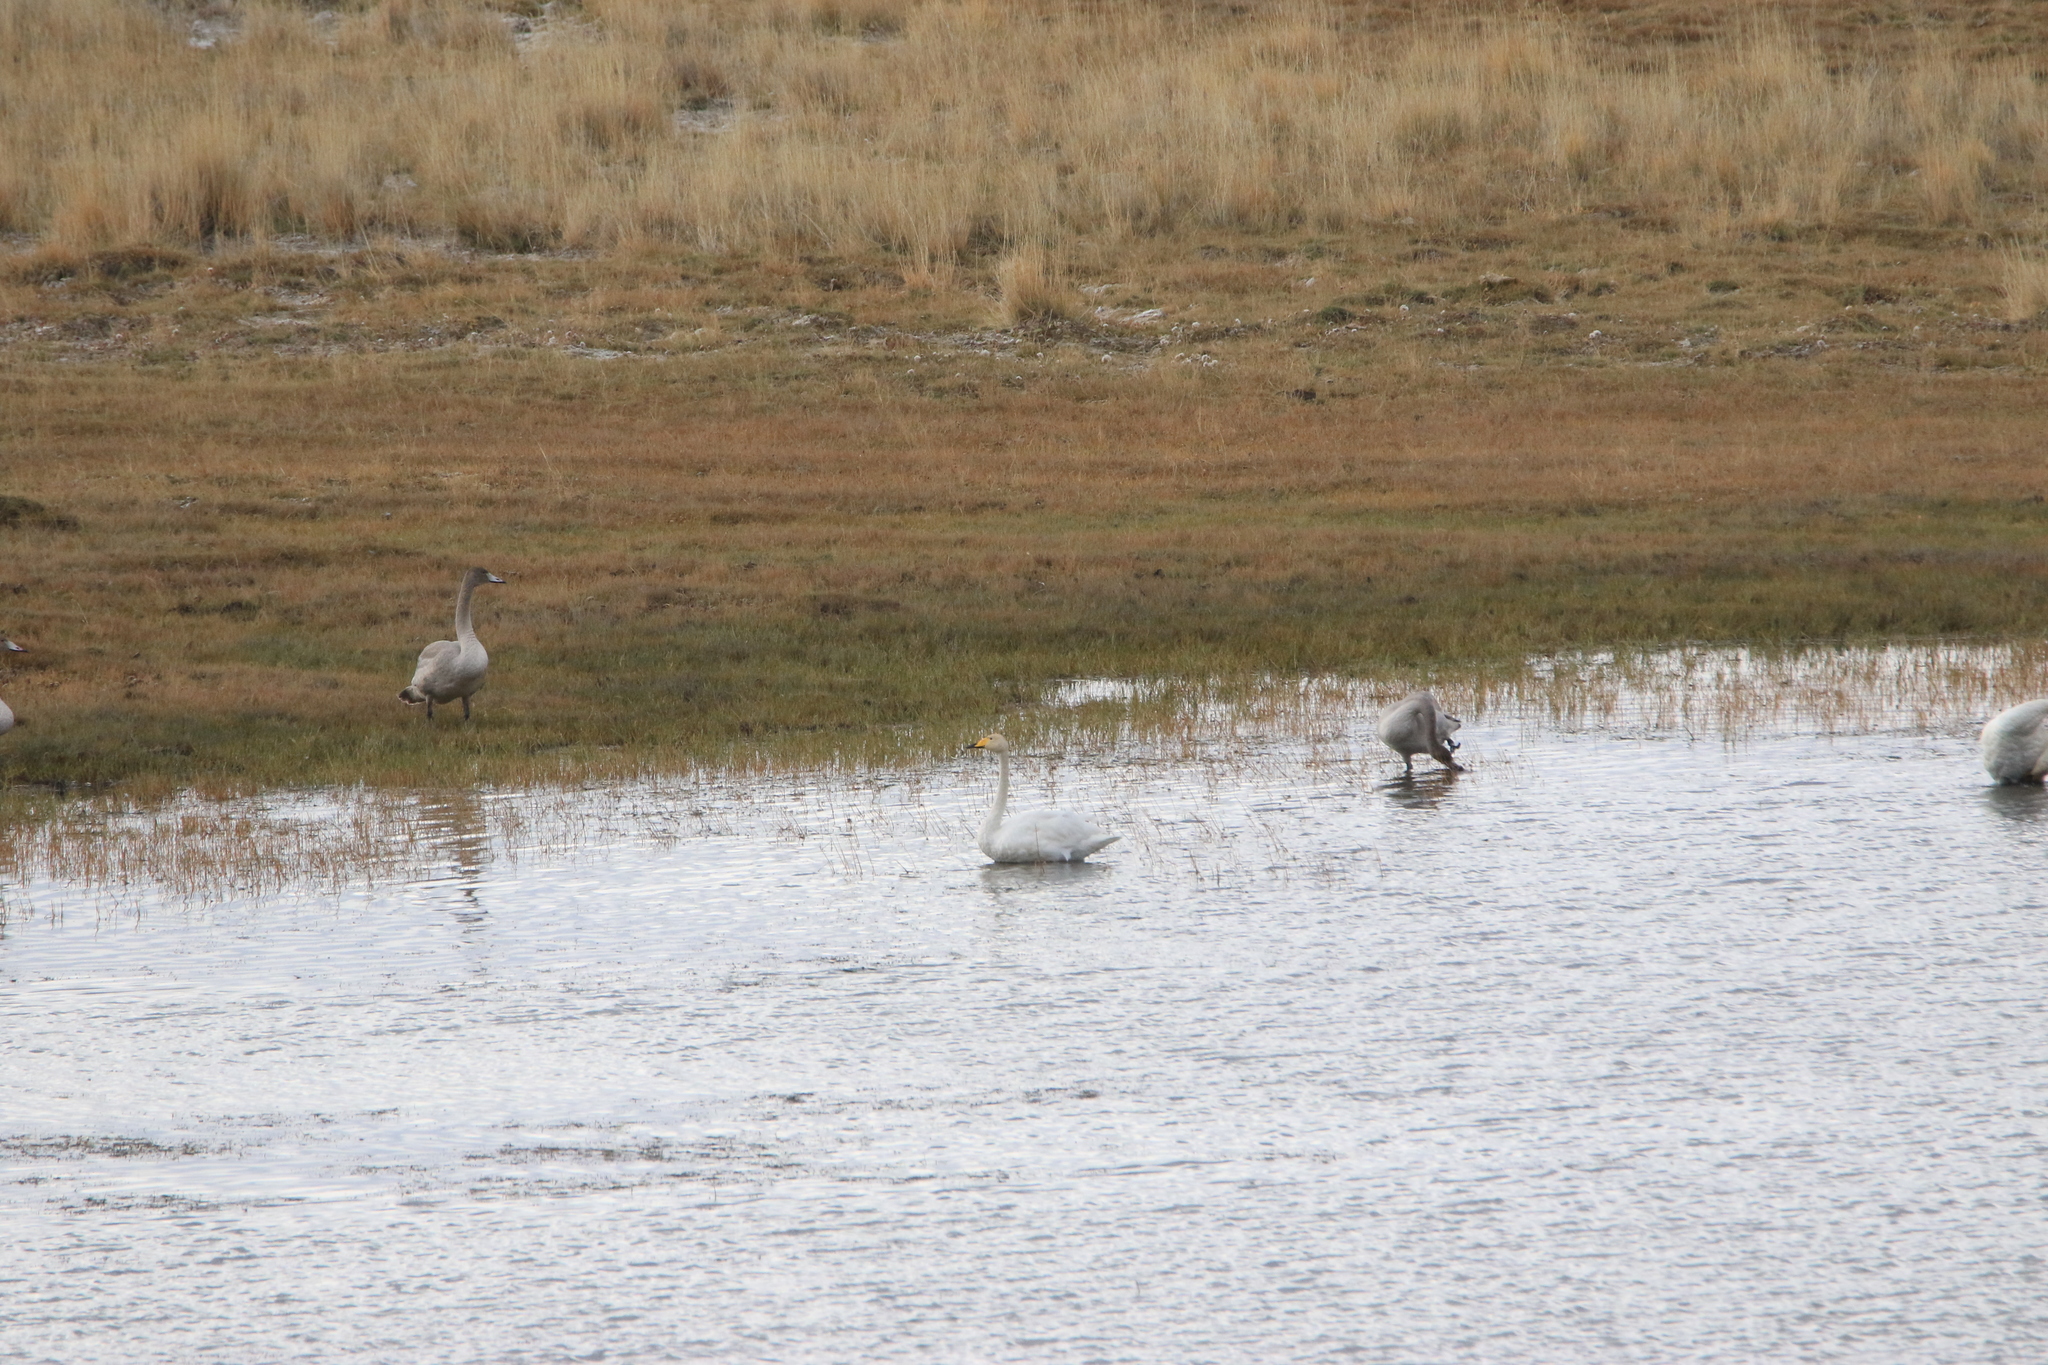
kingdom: Animalia
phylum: Chordata
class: Aves
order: Anseriformes
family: Anatidae
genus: Cygnus
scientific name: Cygnus cygnus
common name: Whooper swan
